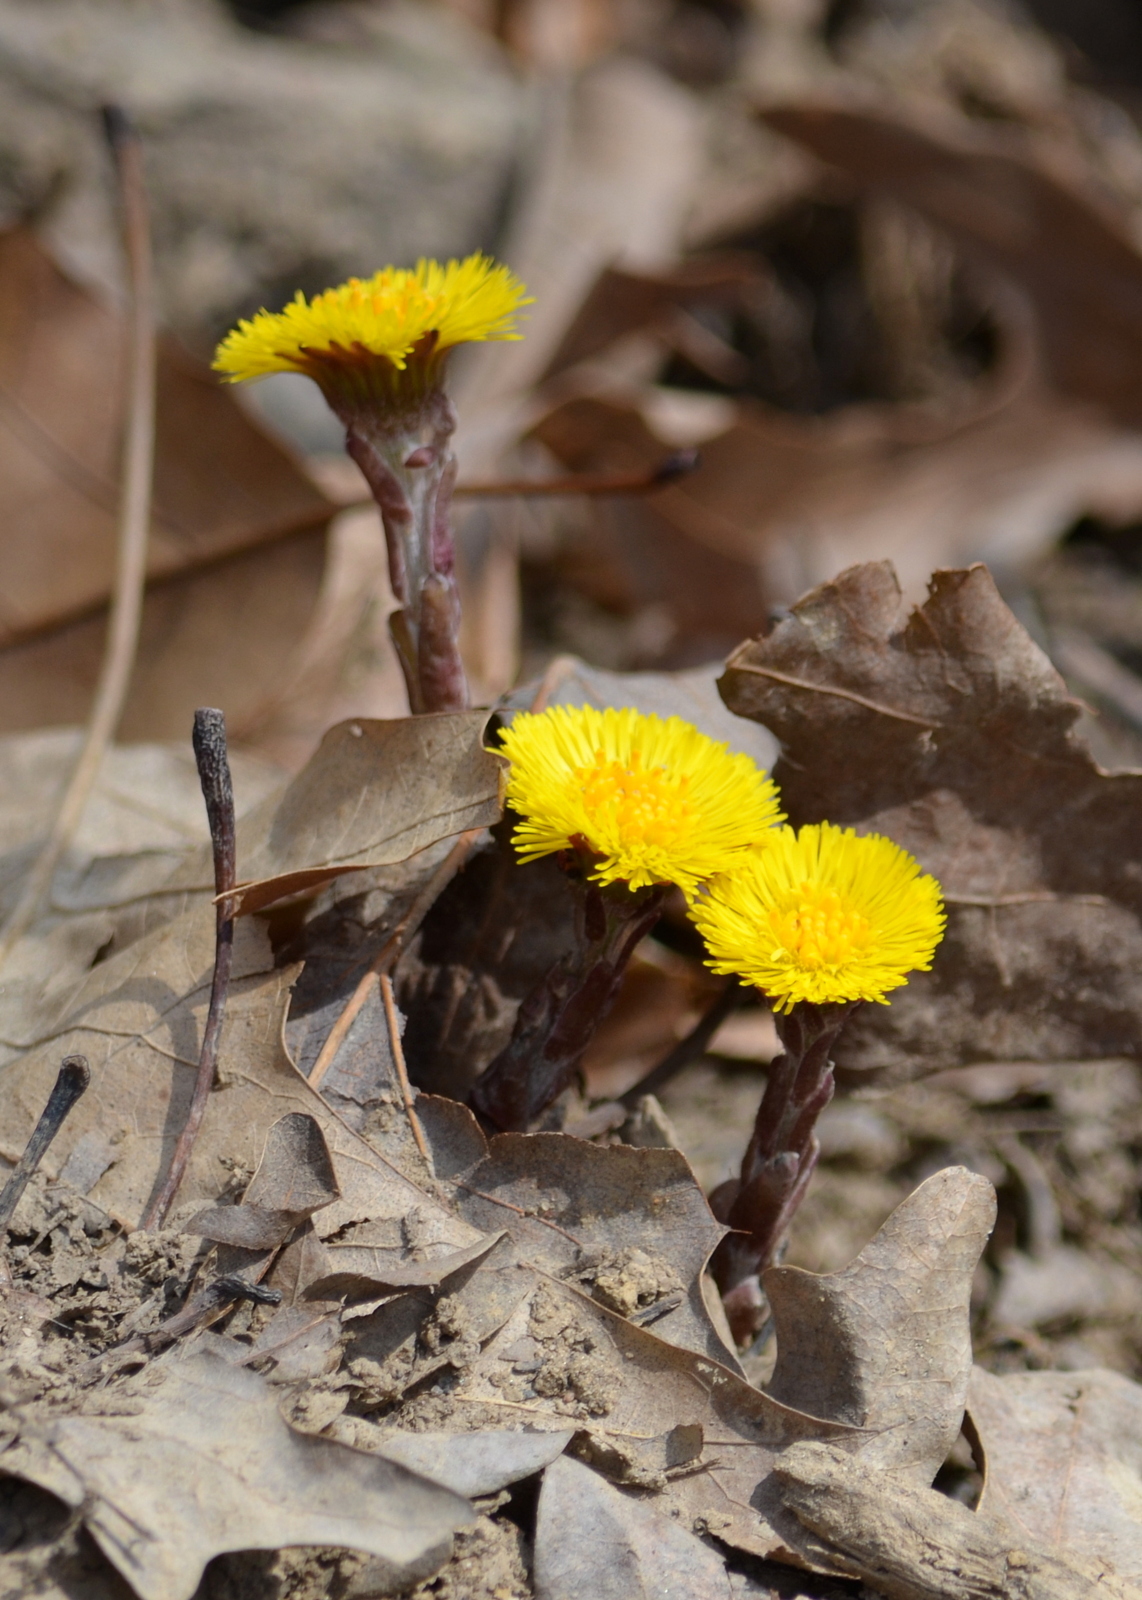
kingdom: Plantae
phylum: Tracheophyta
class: Magnoliopsida
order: Asterales
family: Asteraceae
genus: Tussilago
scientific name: Tussilago farfara
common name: Coltsfoot
